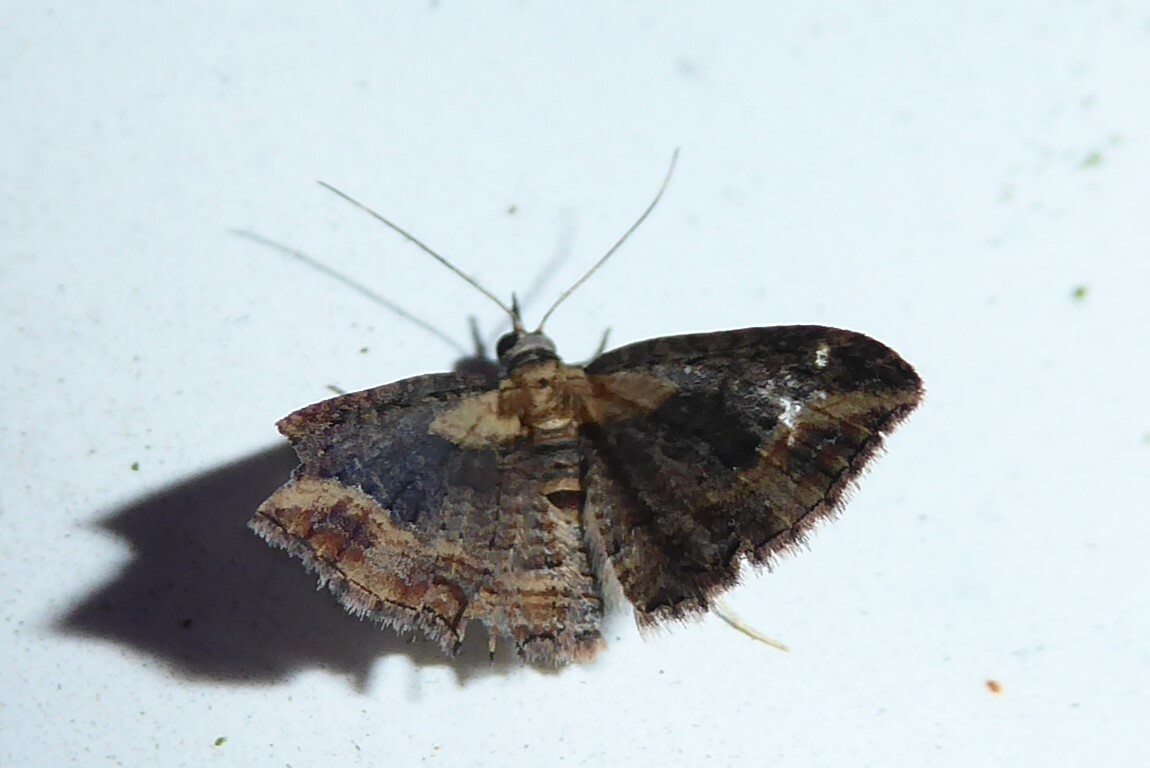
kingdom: Animalia
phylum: Arthropoda
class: Insecta
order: Lepidoptera
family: Geometridae
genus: Chloroclystis
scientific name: Chloroclystis filata
